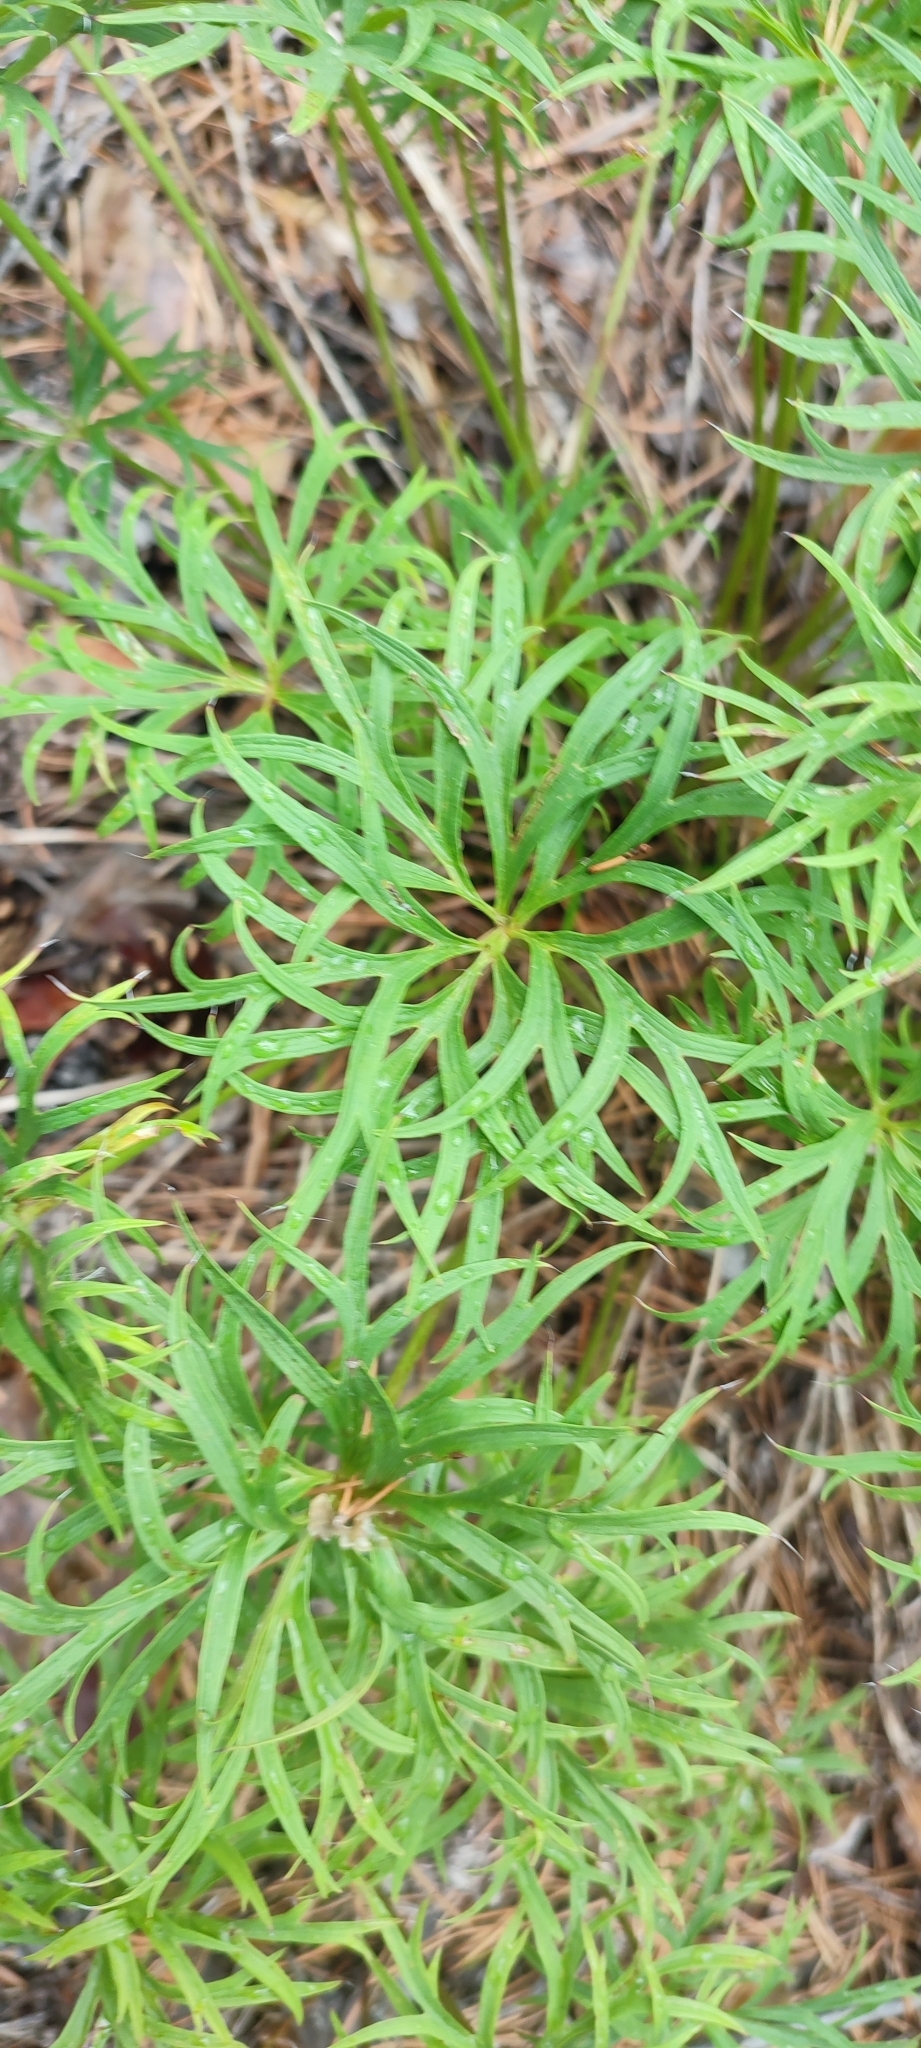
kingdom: Plantae
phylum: Tracheophyta
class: Magnoliopsida
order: Ranunculales
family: Ranunculaceae
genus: Pulsatilla
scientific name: Pulsatilla patens
